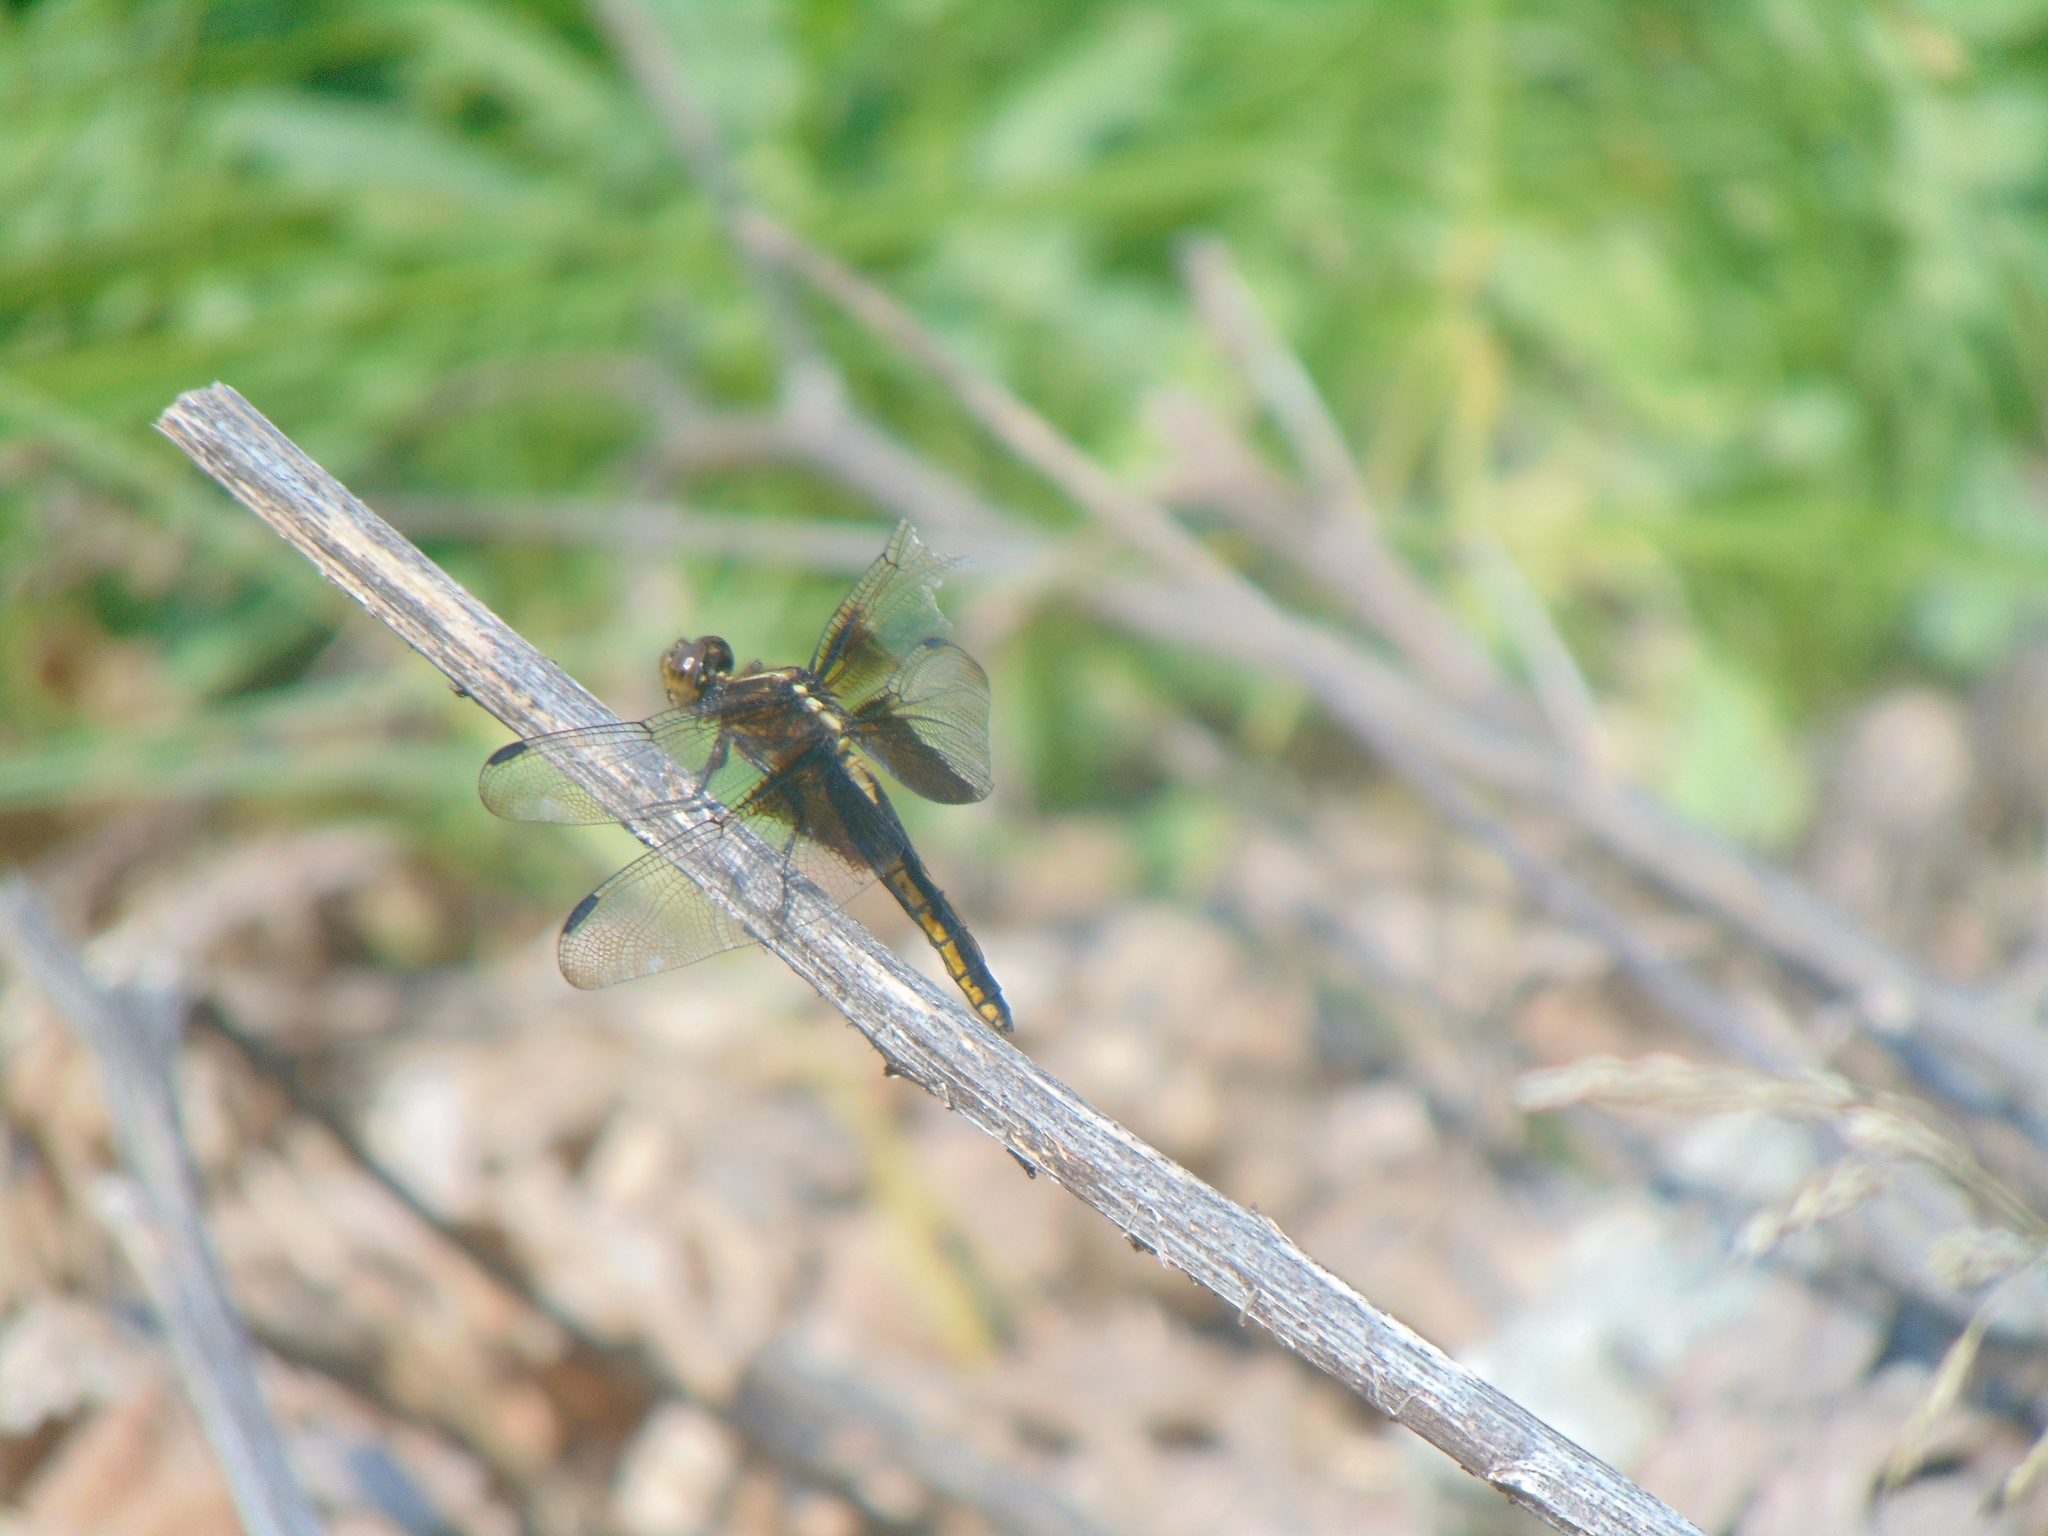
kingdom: Animalia
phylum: Arthropoda
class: Insecta
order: Odonata
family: Libellulidae
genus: Libellula
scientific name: Libellula luctuosa
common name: Widow skimmer
